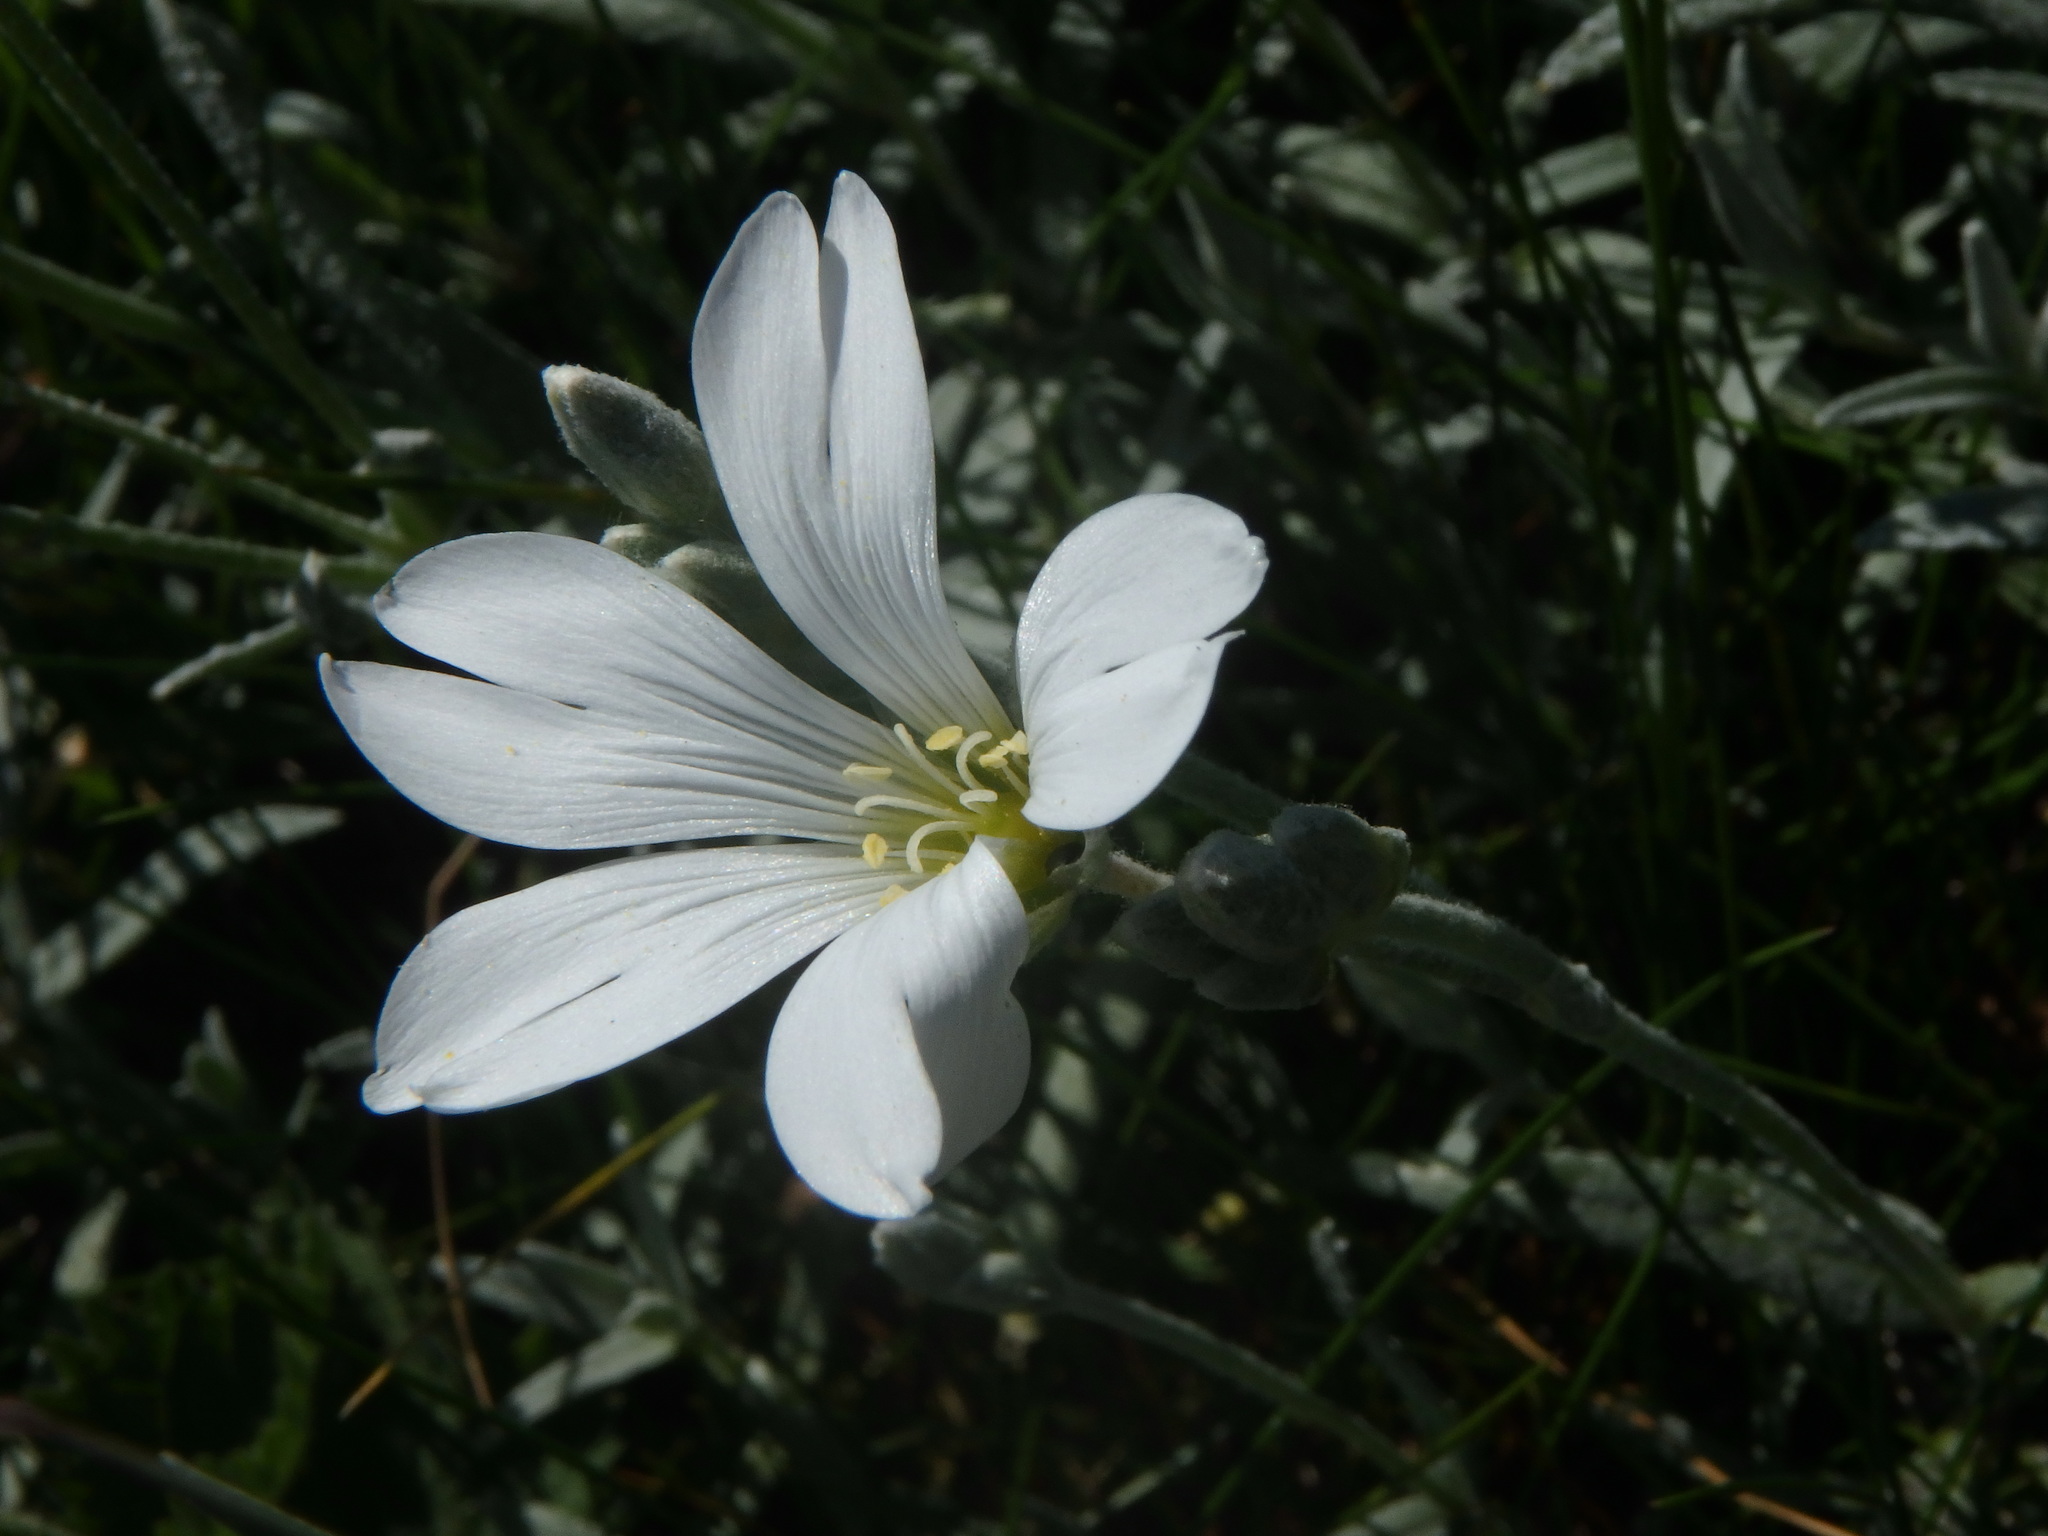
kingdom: Plantae
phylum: Tracheophyta
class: Magnoliopsida
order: Caryophyllales
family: Caryophyllaceae
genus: Cerastium
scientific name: Cerastium tomentosum
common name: Snow-in-summer
